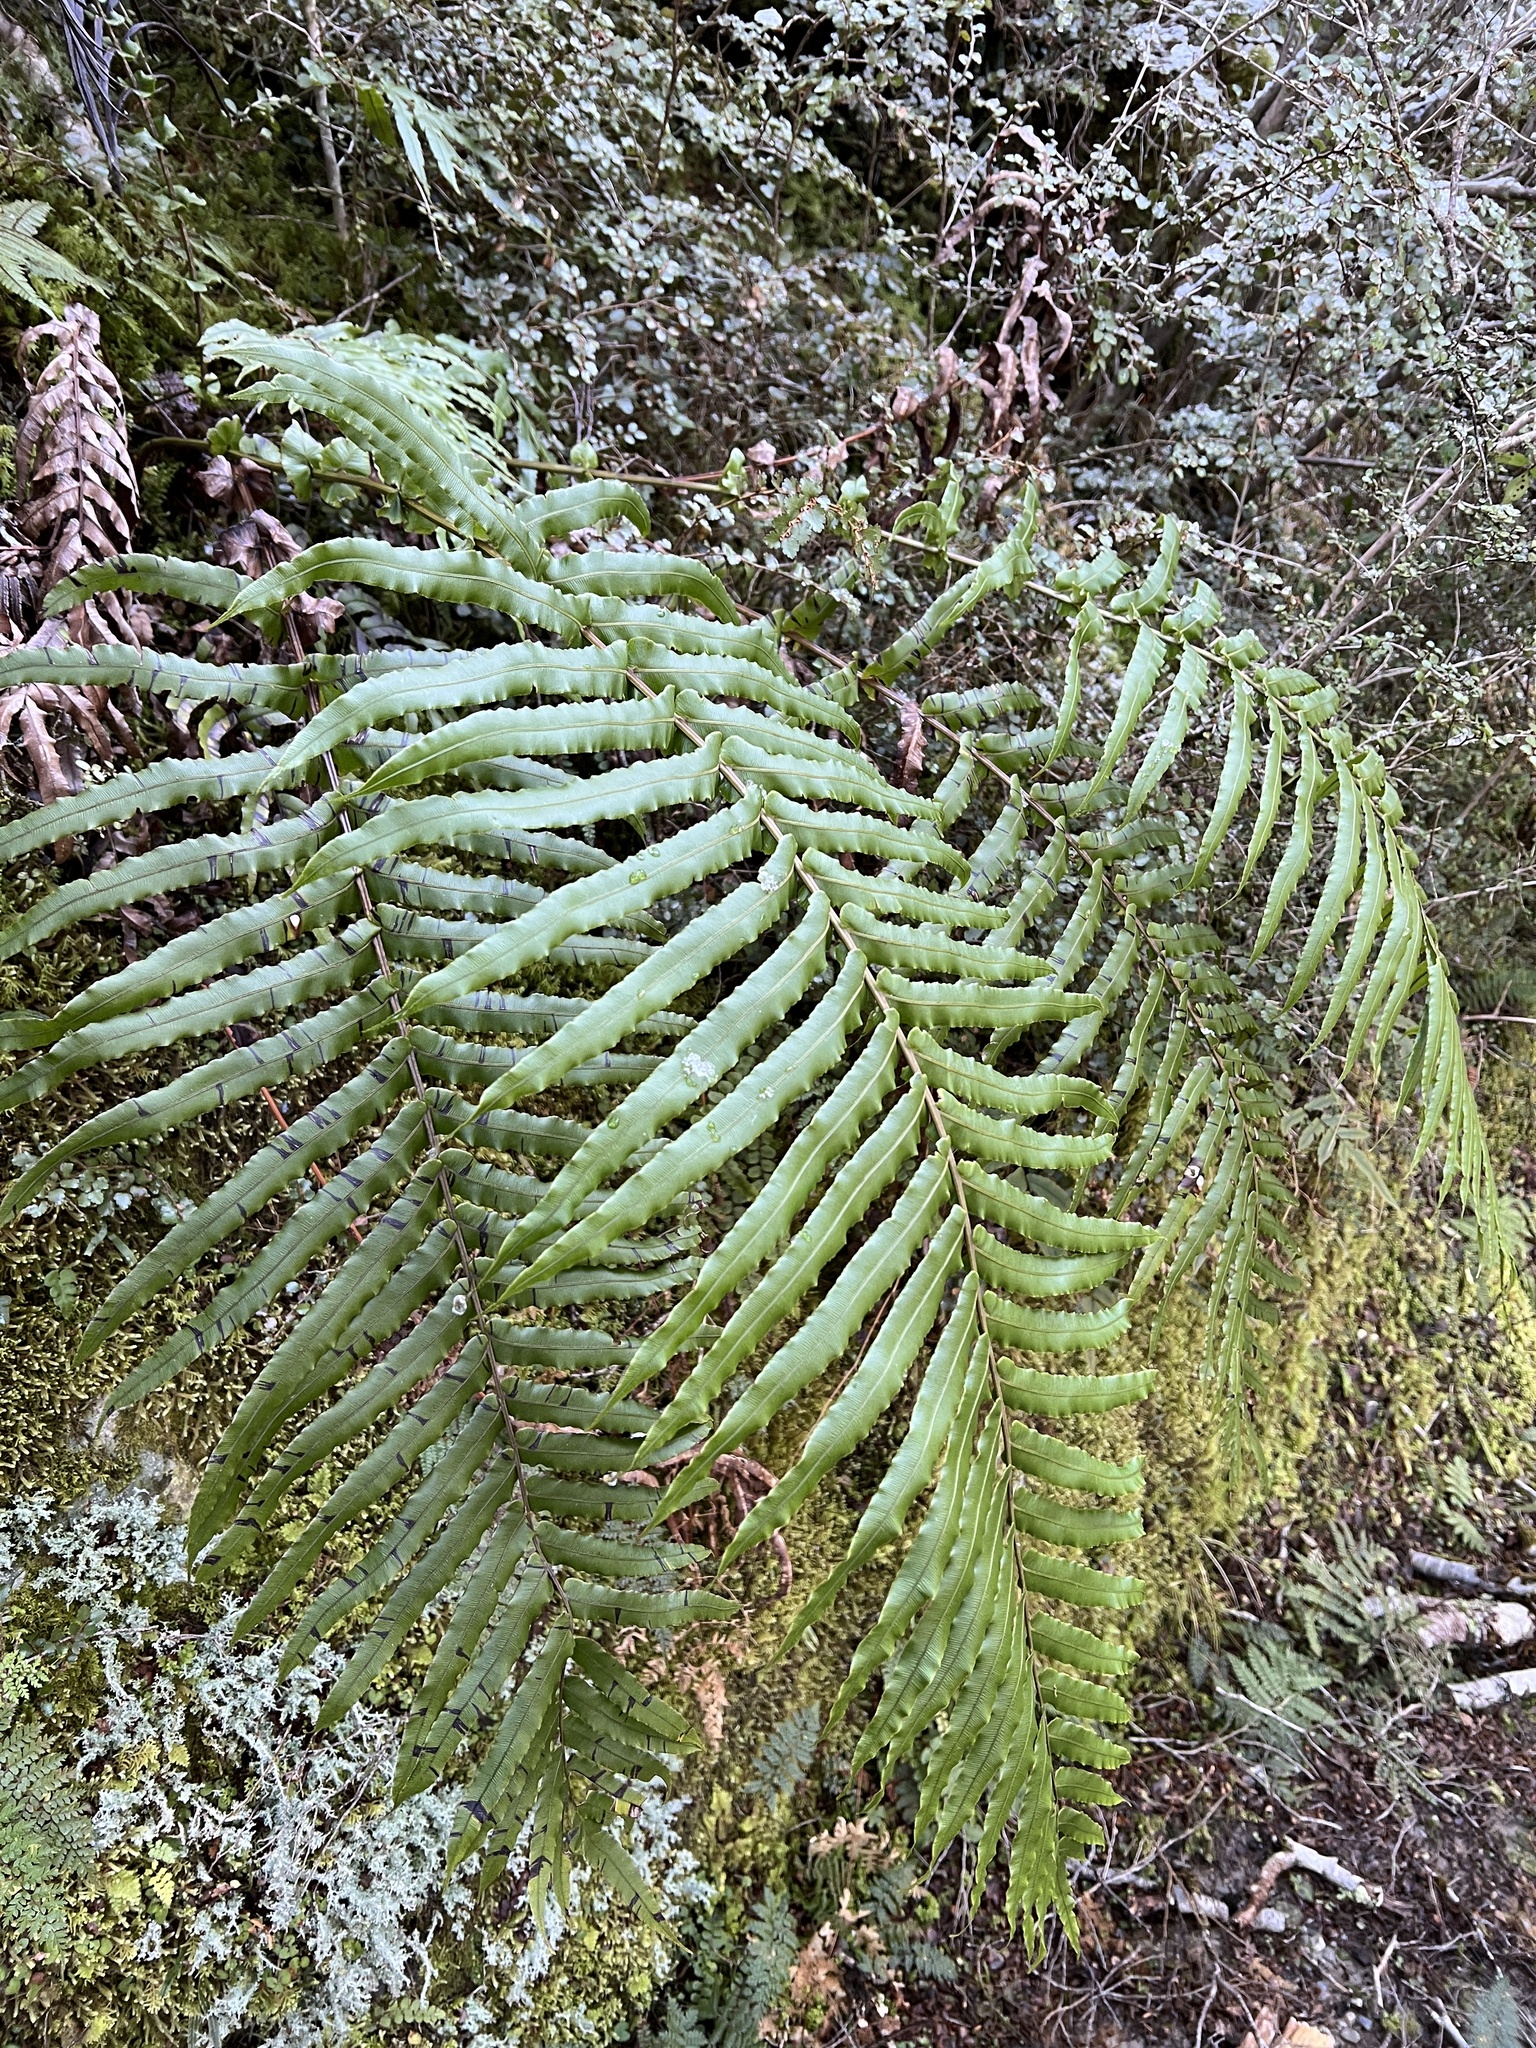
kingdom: Plantae
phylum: Tracheophyta
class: Polypodiopsida
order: Polypodiales
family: Blechnaceae
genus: Parablechnum
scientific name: Parablechnum novae-zelandiae
